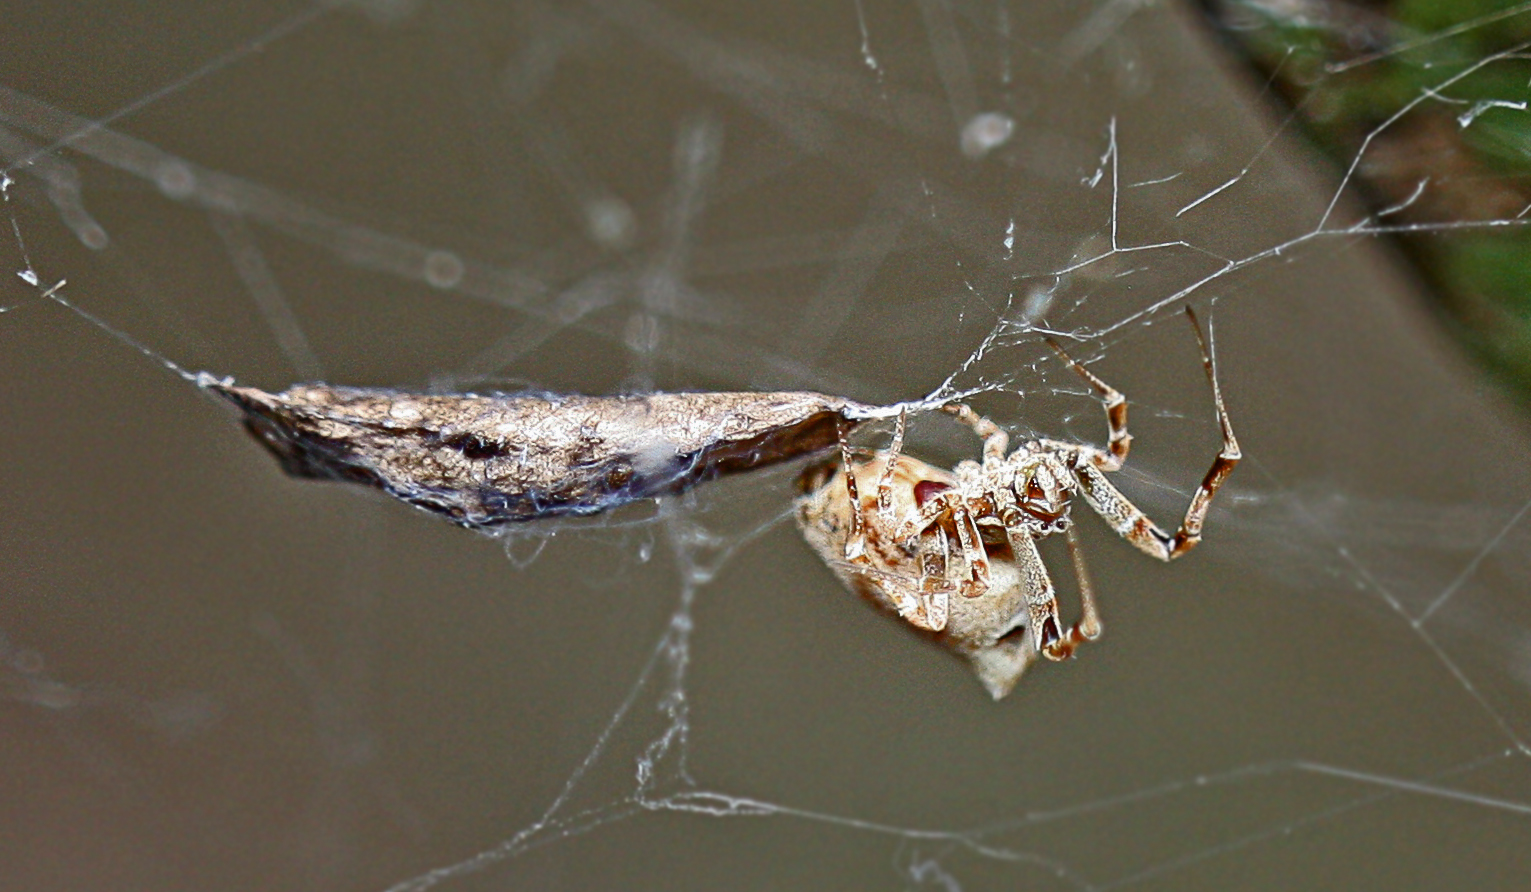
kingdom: Animalia
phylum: Arthropoda
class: Arachnida
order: Araneae
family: Uloboridae
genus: Philoponella
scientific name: Philoponella congregabilis
